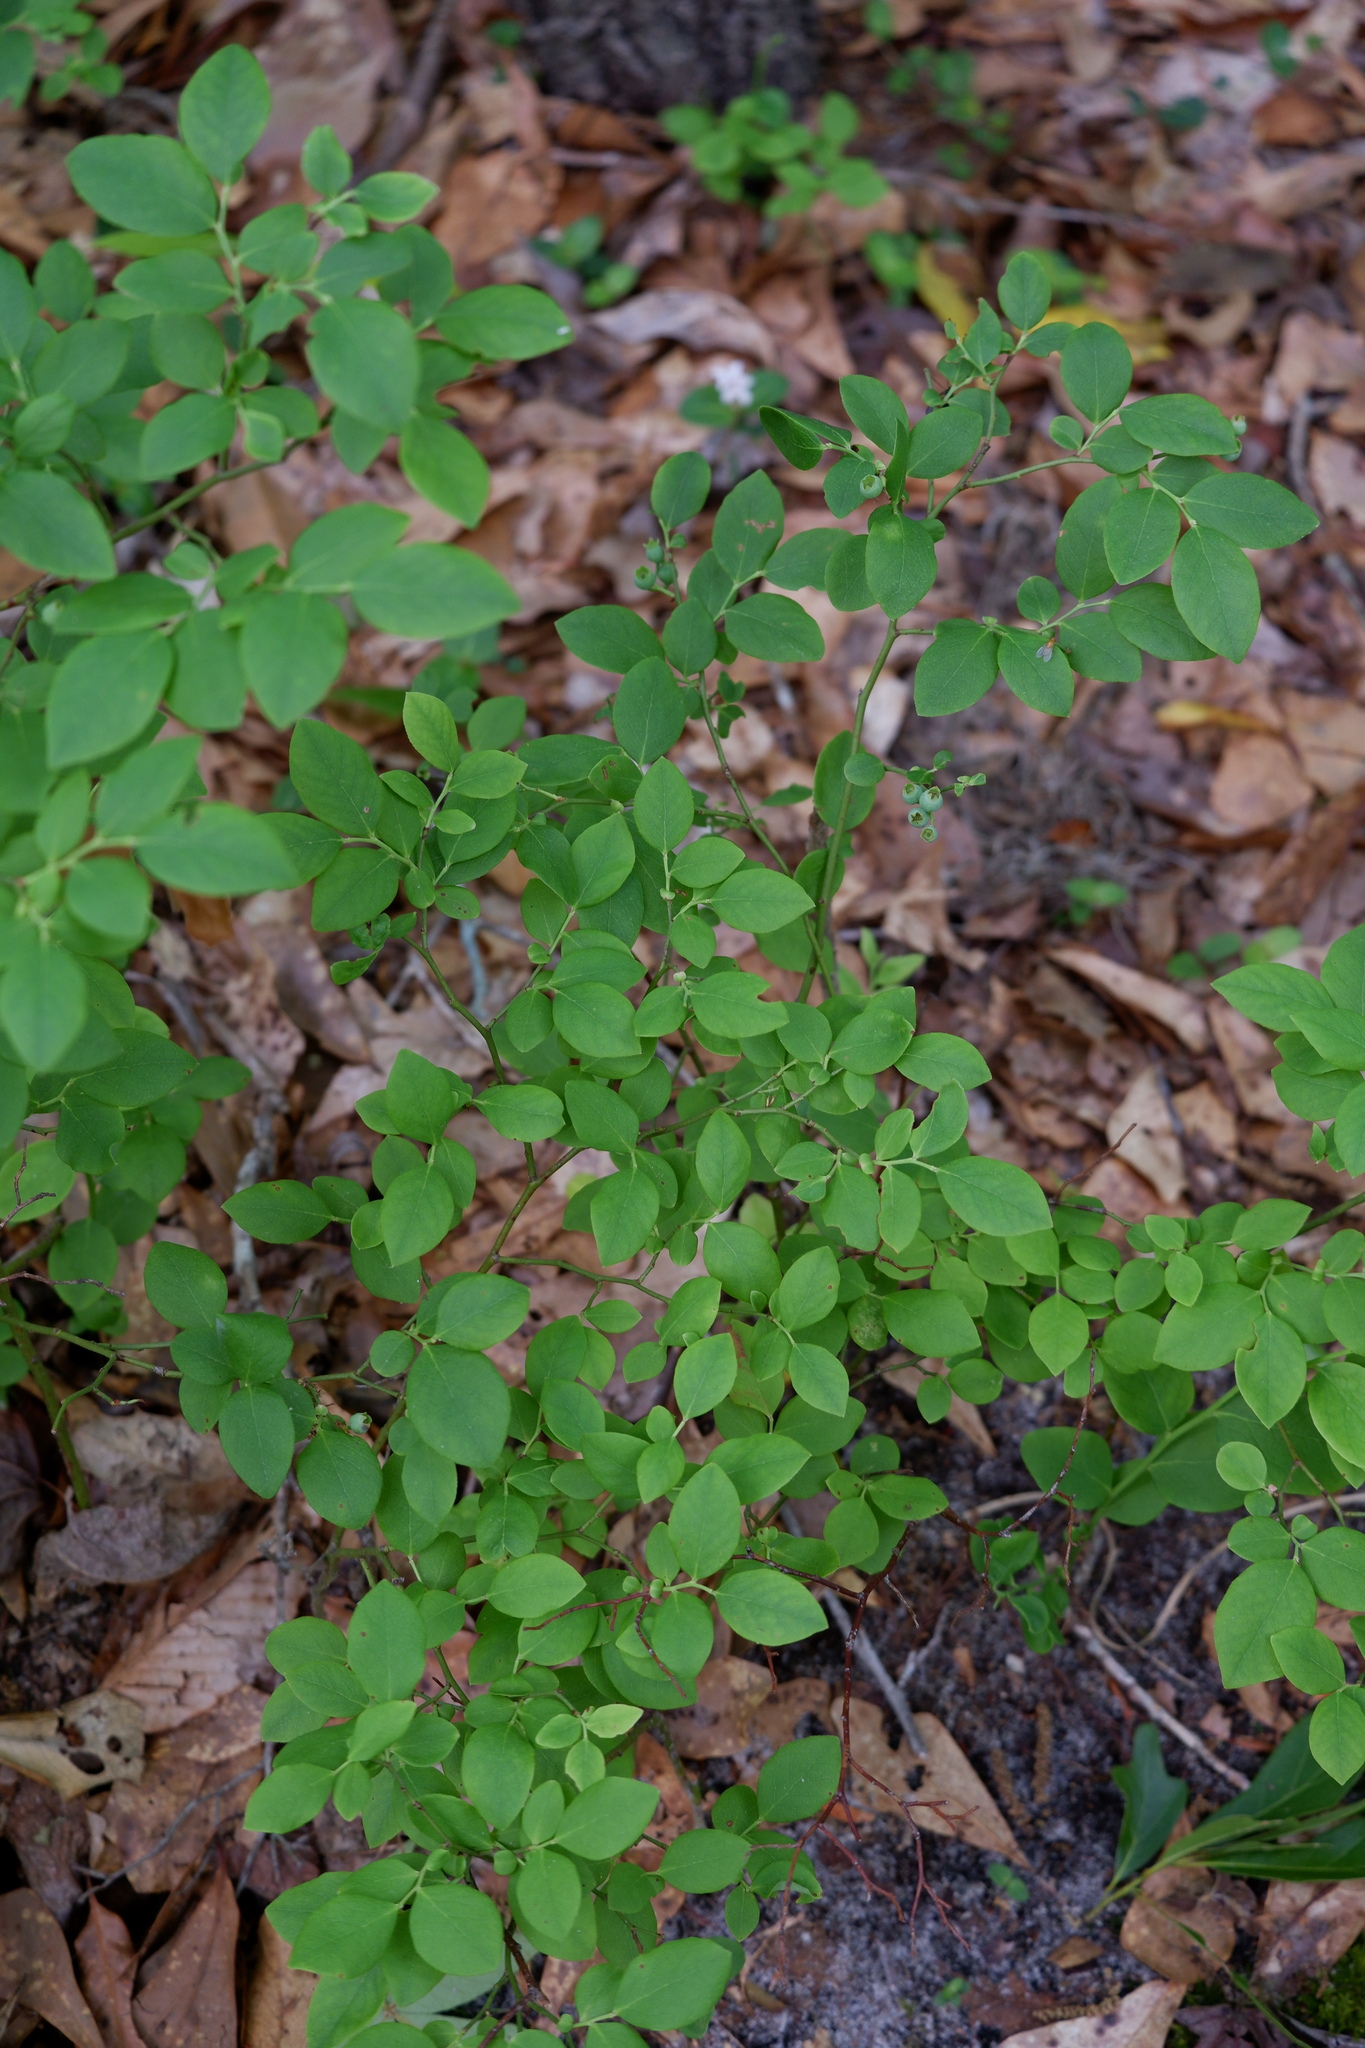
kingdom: Plantae
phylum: Tracheophyta
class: Magnoliopsida
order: Ericales
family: Ericaceae
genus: Vaccinium
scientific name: Vaccinium pallidum
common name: Blue ridge blueberry
